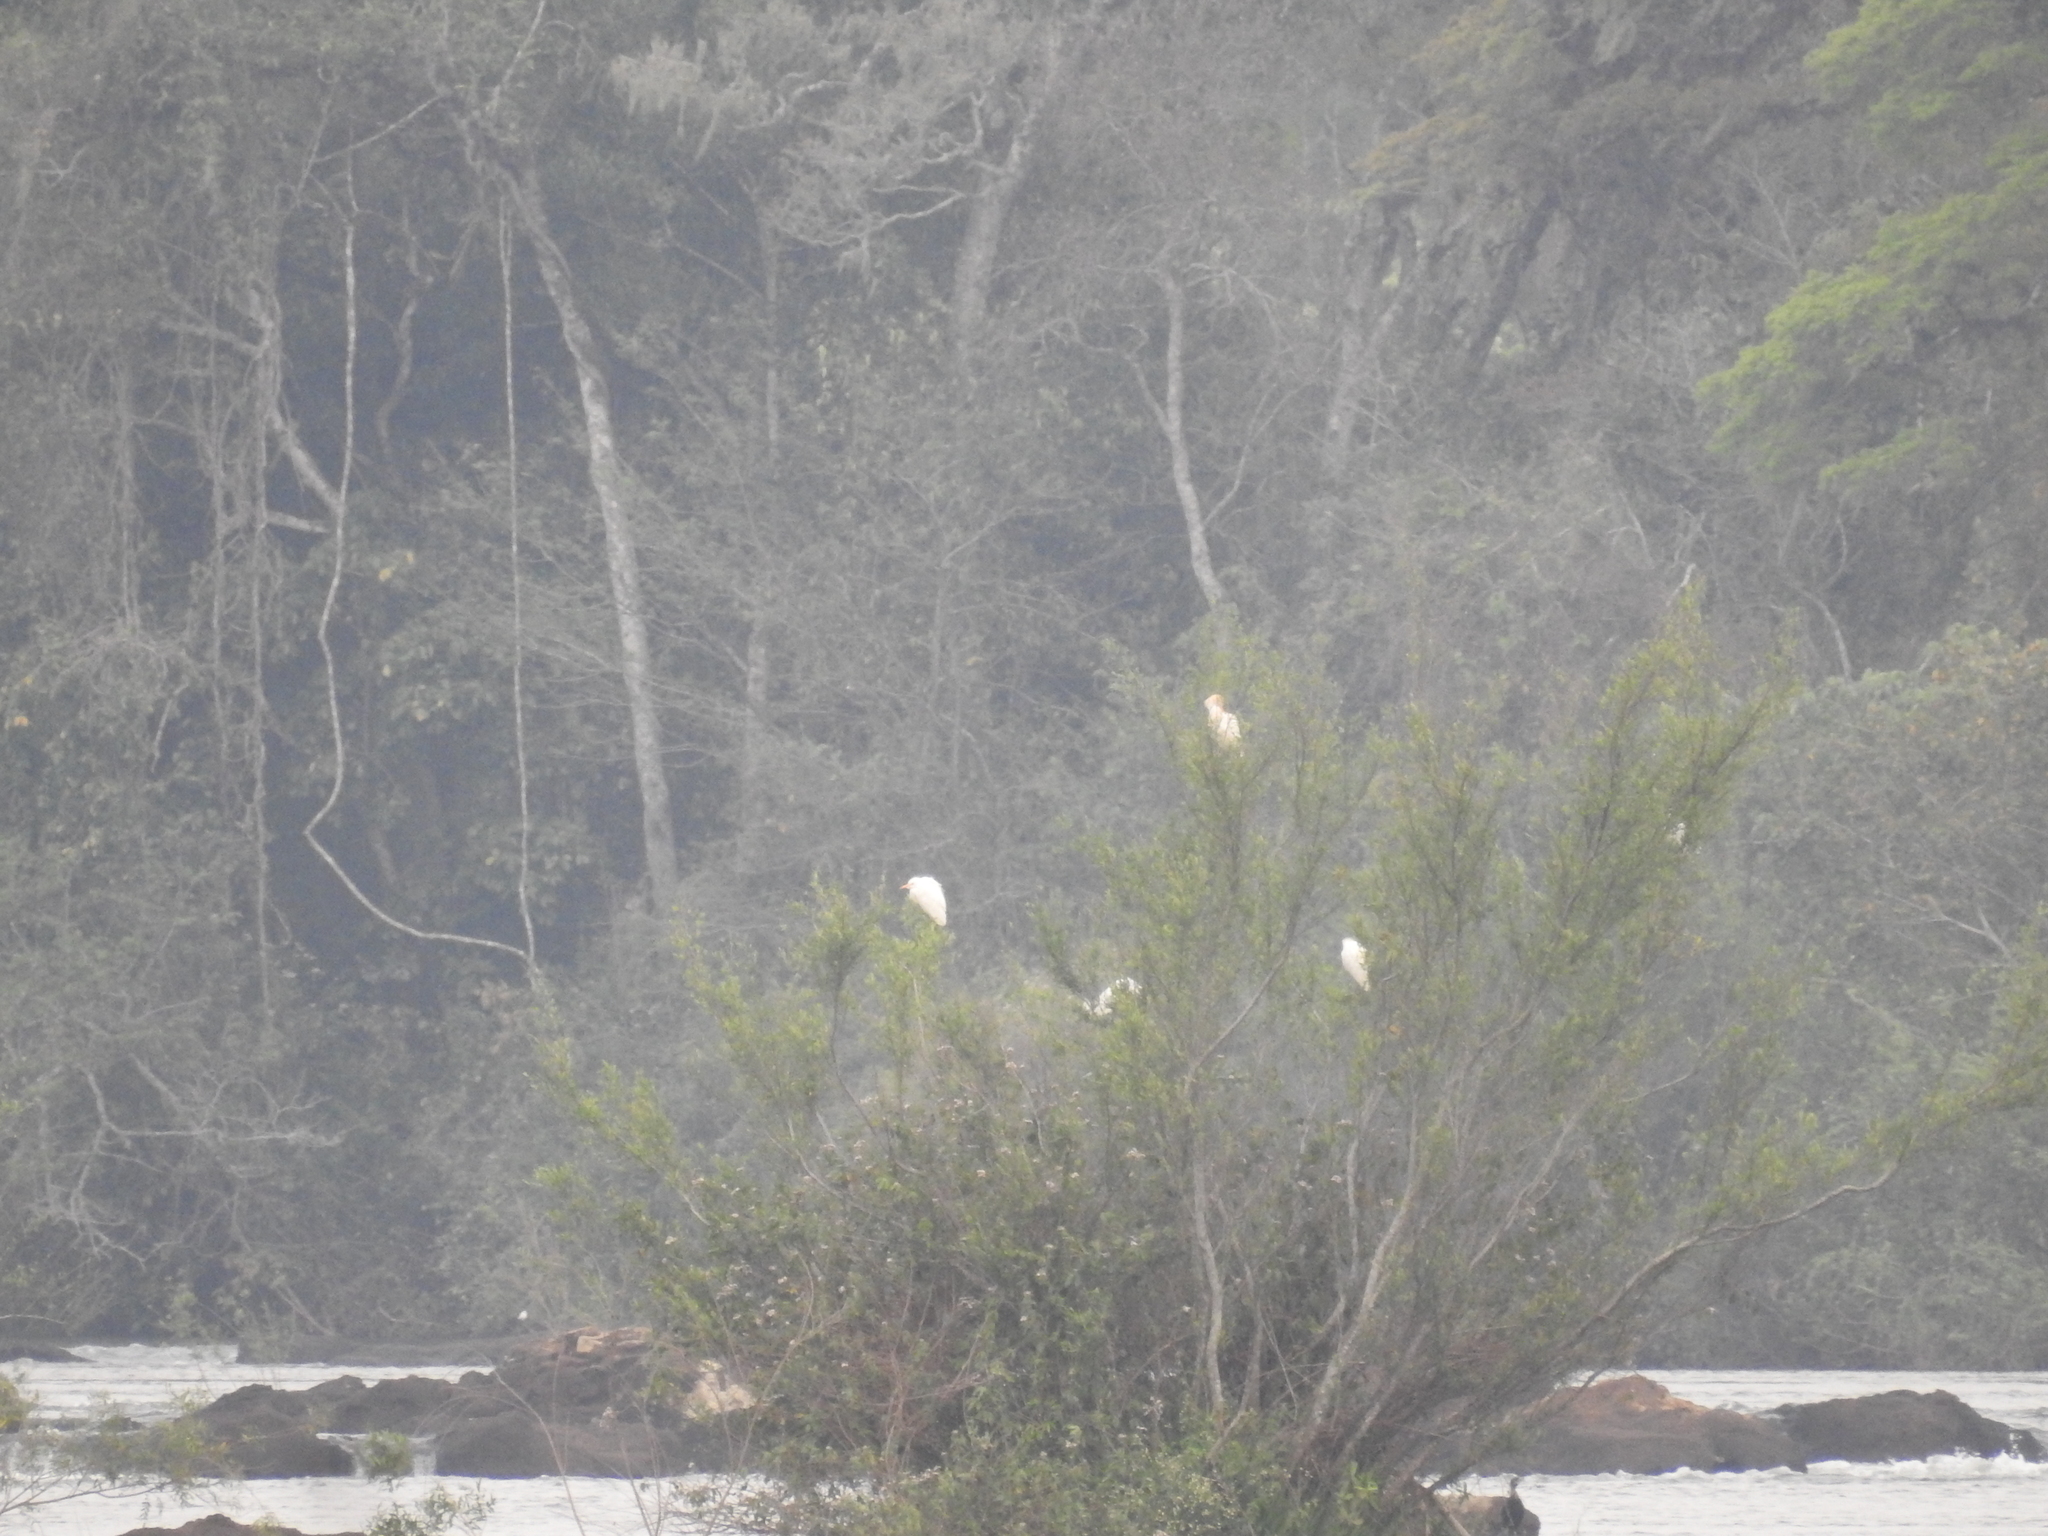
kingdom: Animalia
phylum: Chordata
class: Aves
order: Pelecaniformes
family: Ardeidae
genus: Bubulcus
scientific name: Bubulcus ibis
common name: Cattle egret
